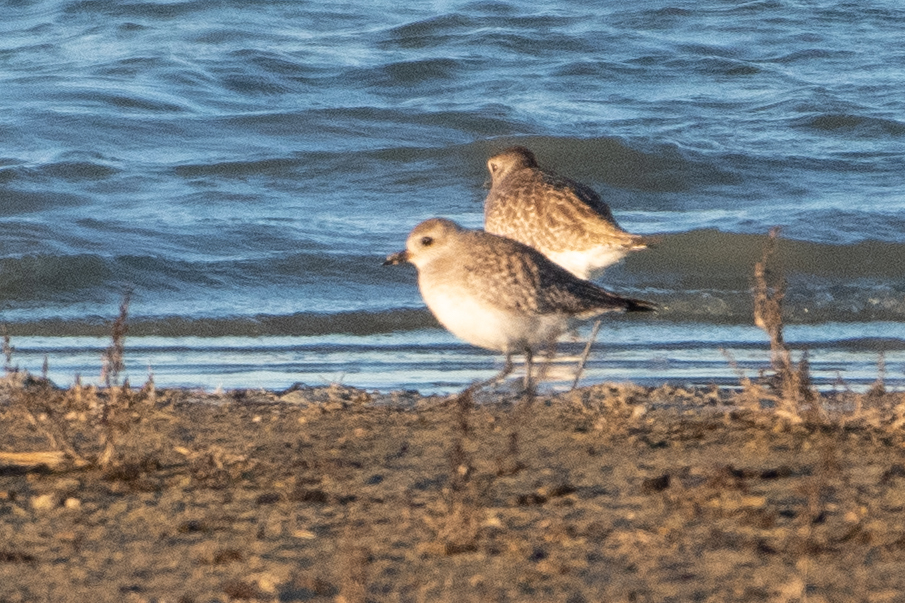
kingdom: Animalia
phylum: Chordata
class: Aves
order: Charadriiformes
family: Charadriidae
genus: Pluvialis
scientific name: Pluvialis squatarola
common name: Grey plover
